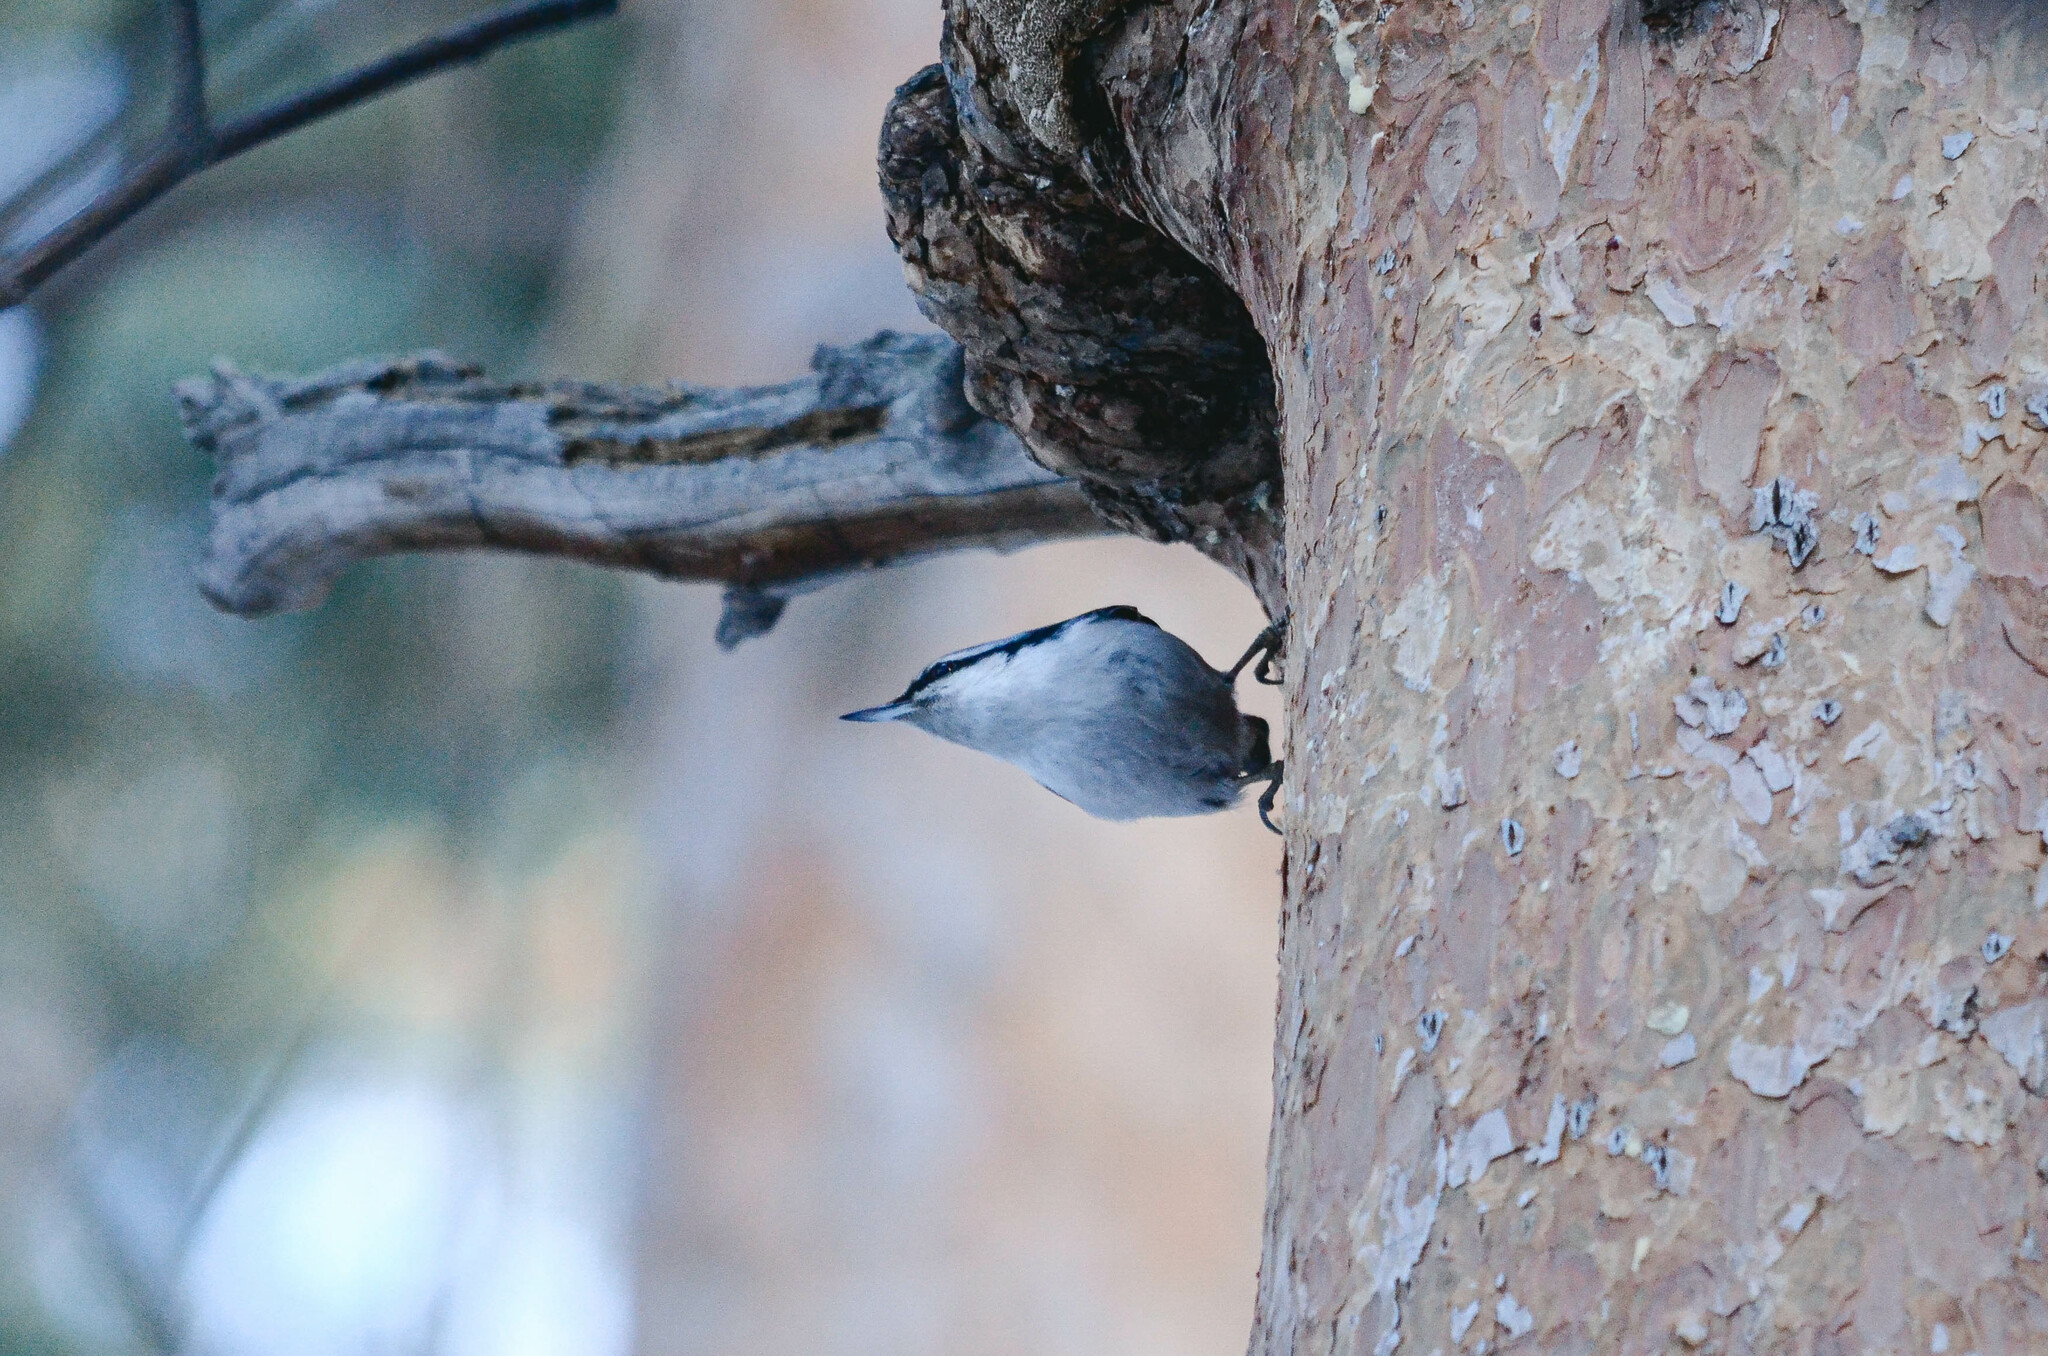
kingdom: Animalia
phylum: Chordata
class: Aves
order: Passeriformes
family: Sittidae
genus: Sitta
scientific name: Sitta europaea
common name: Eurasian nuthatch
